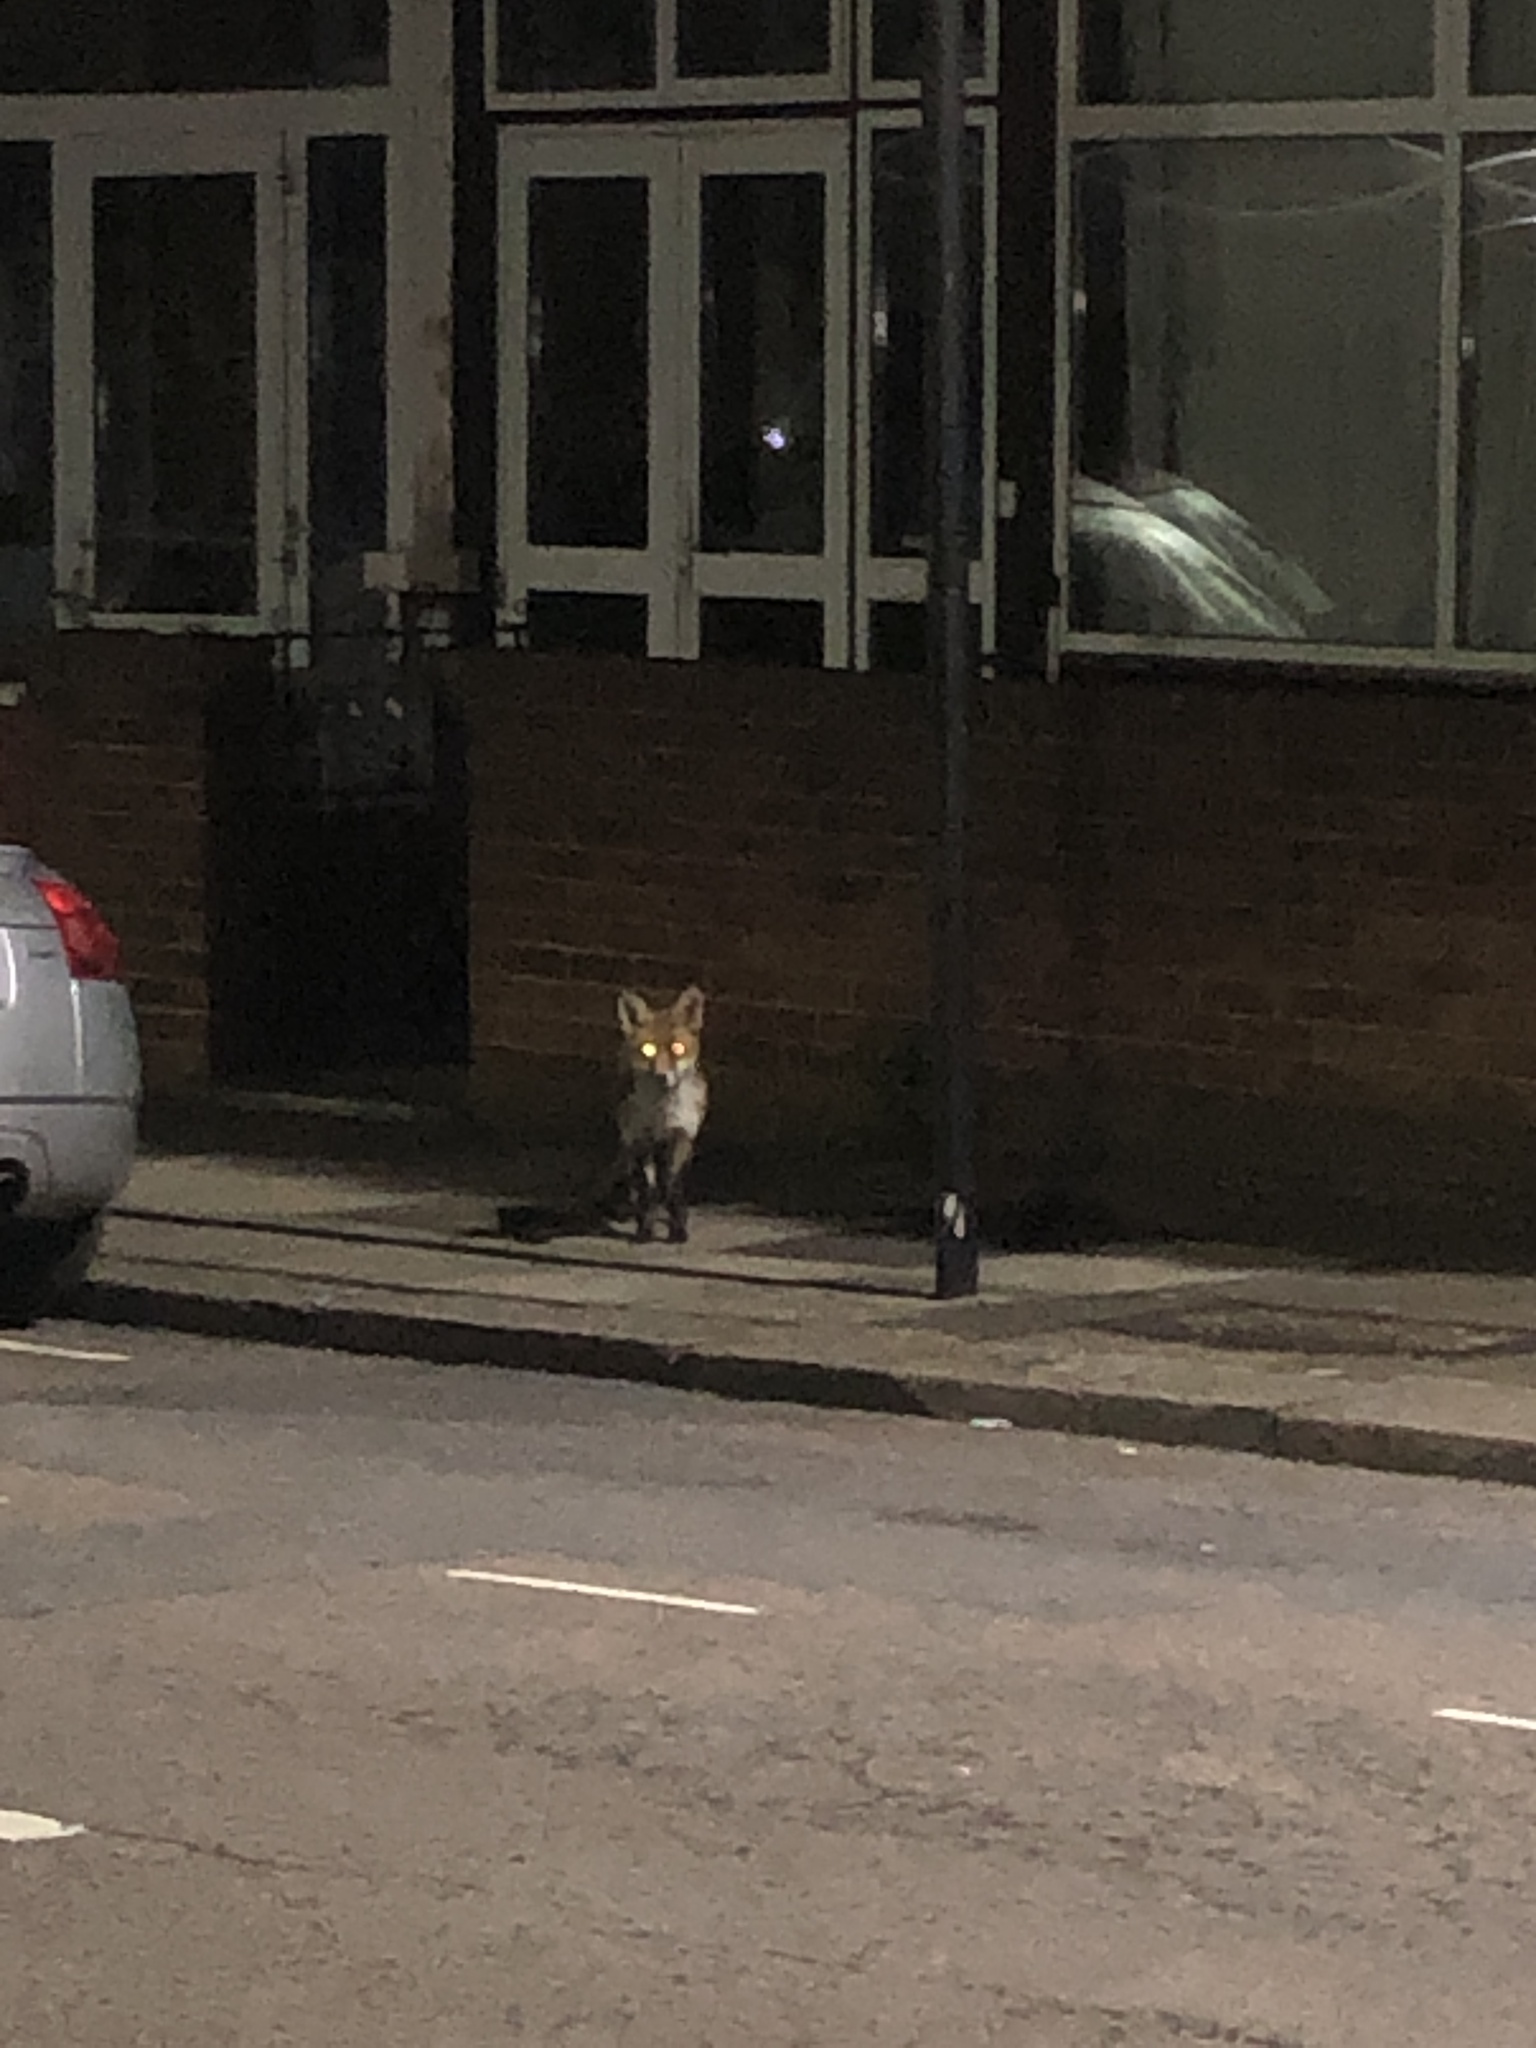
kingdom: Animalia
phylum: Chordata
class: Mammalia
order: Carnivora
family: Canidae
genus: Vulpes
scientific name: Vulpes vulpes
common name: Red fox
